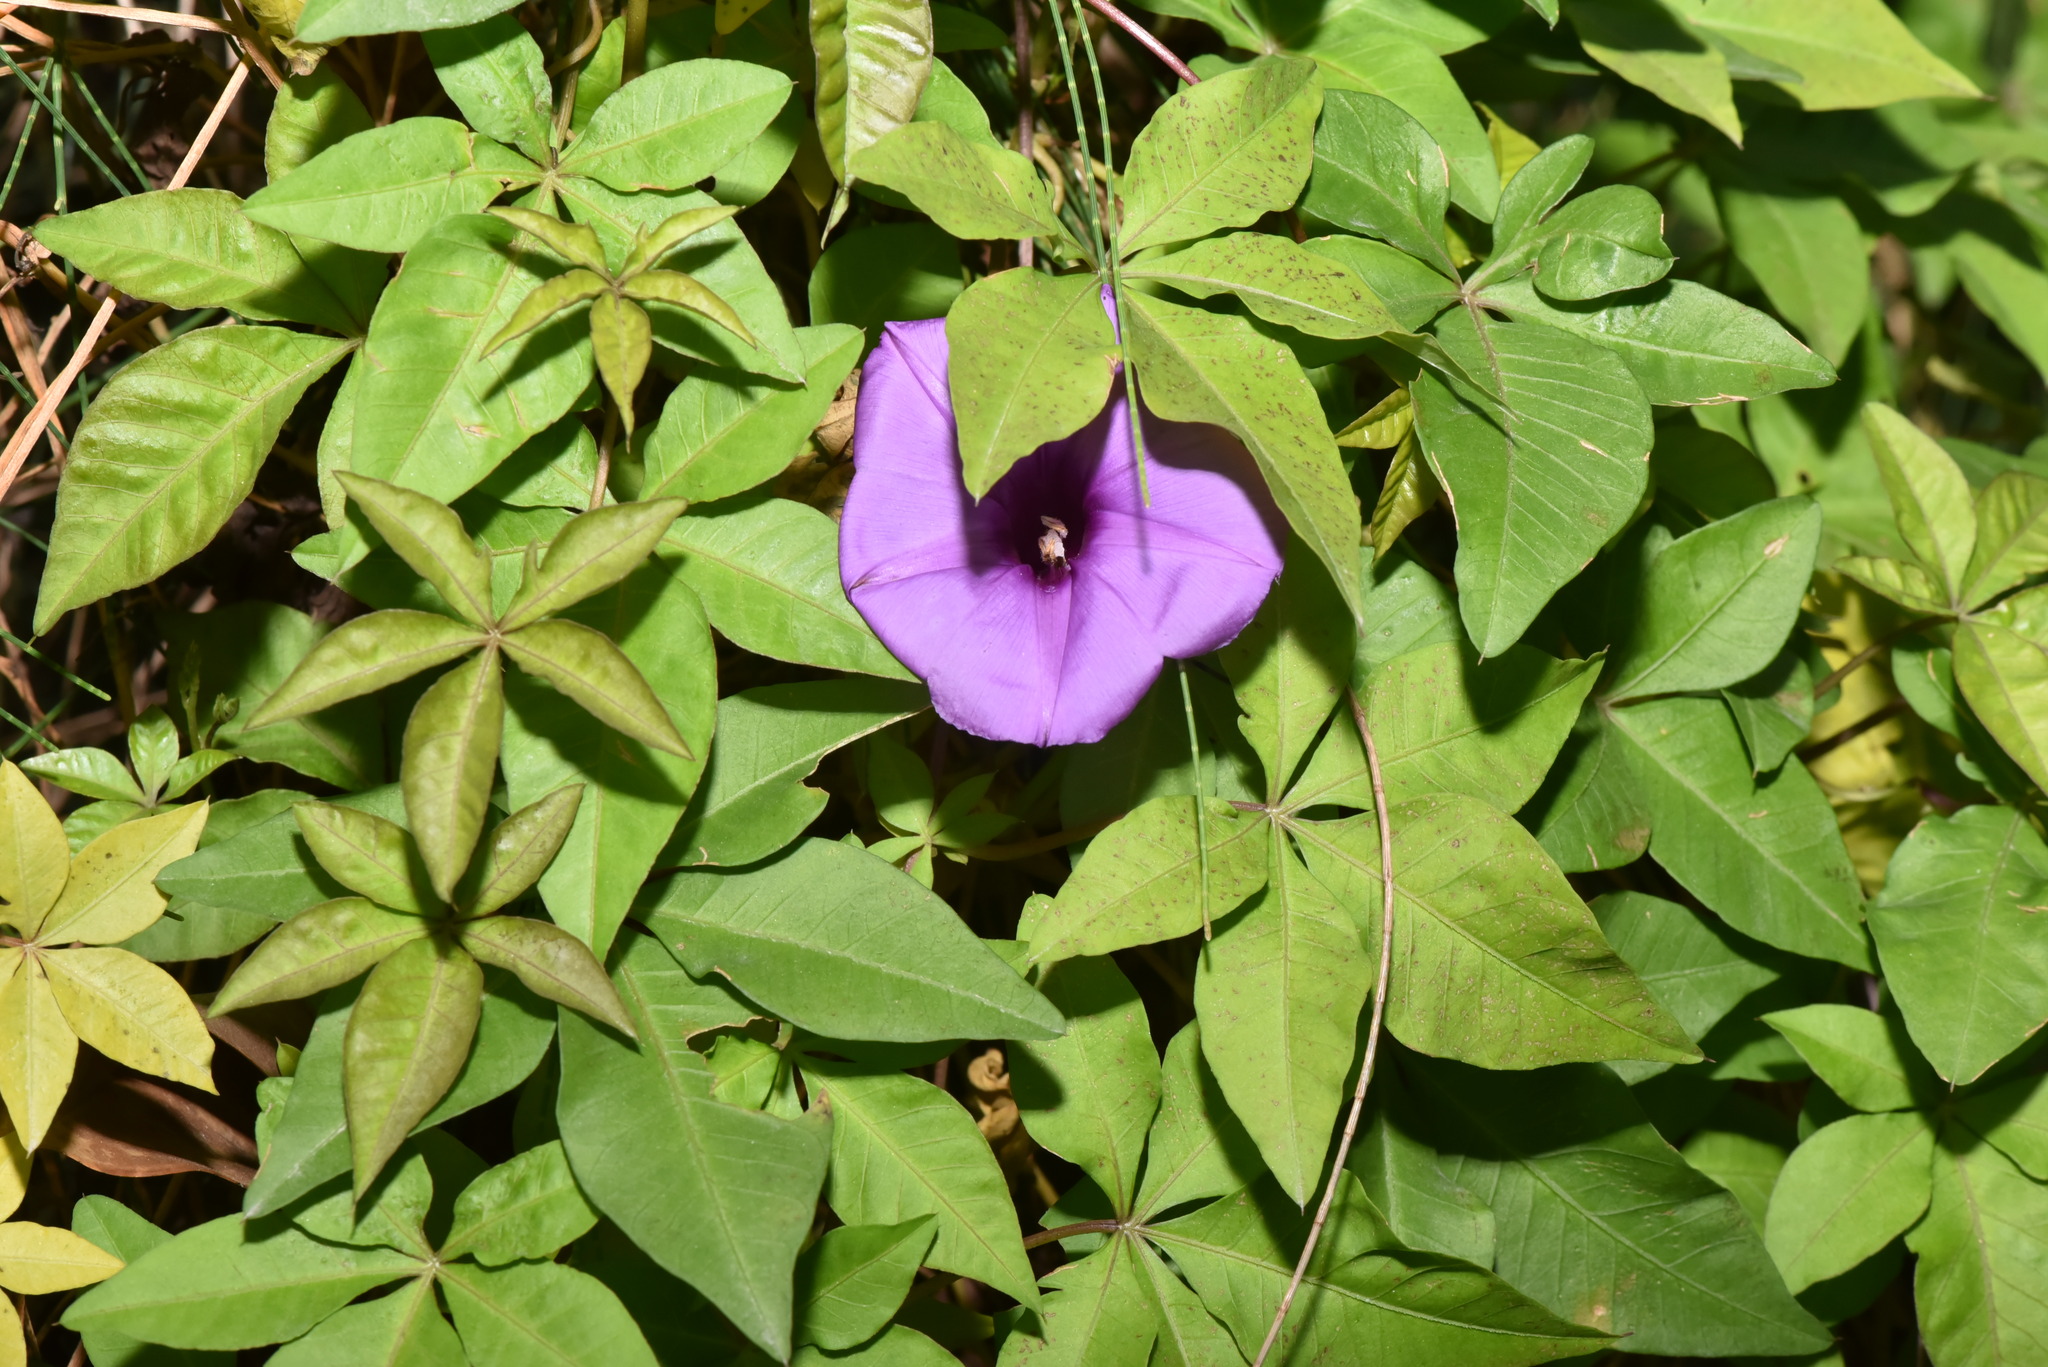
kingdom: Plantae
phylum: Tracheophyta
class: Magnoliopsida
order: Solanales
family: Convolvulaceae
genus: Ipomoea
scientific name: Ipomoea cairica
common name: Mile a minute vine
